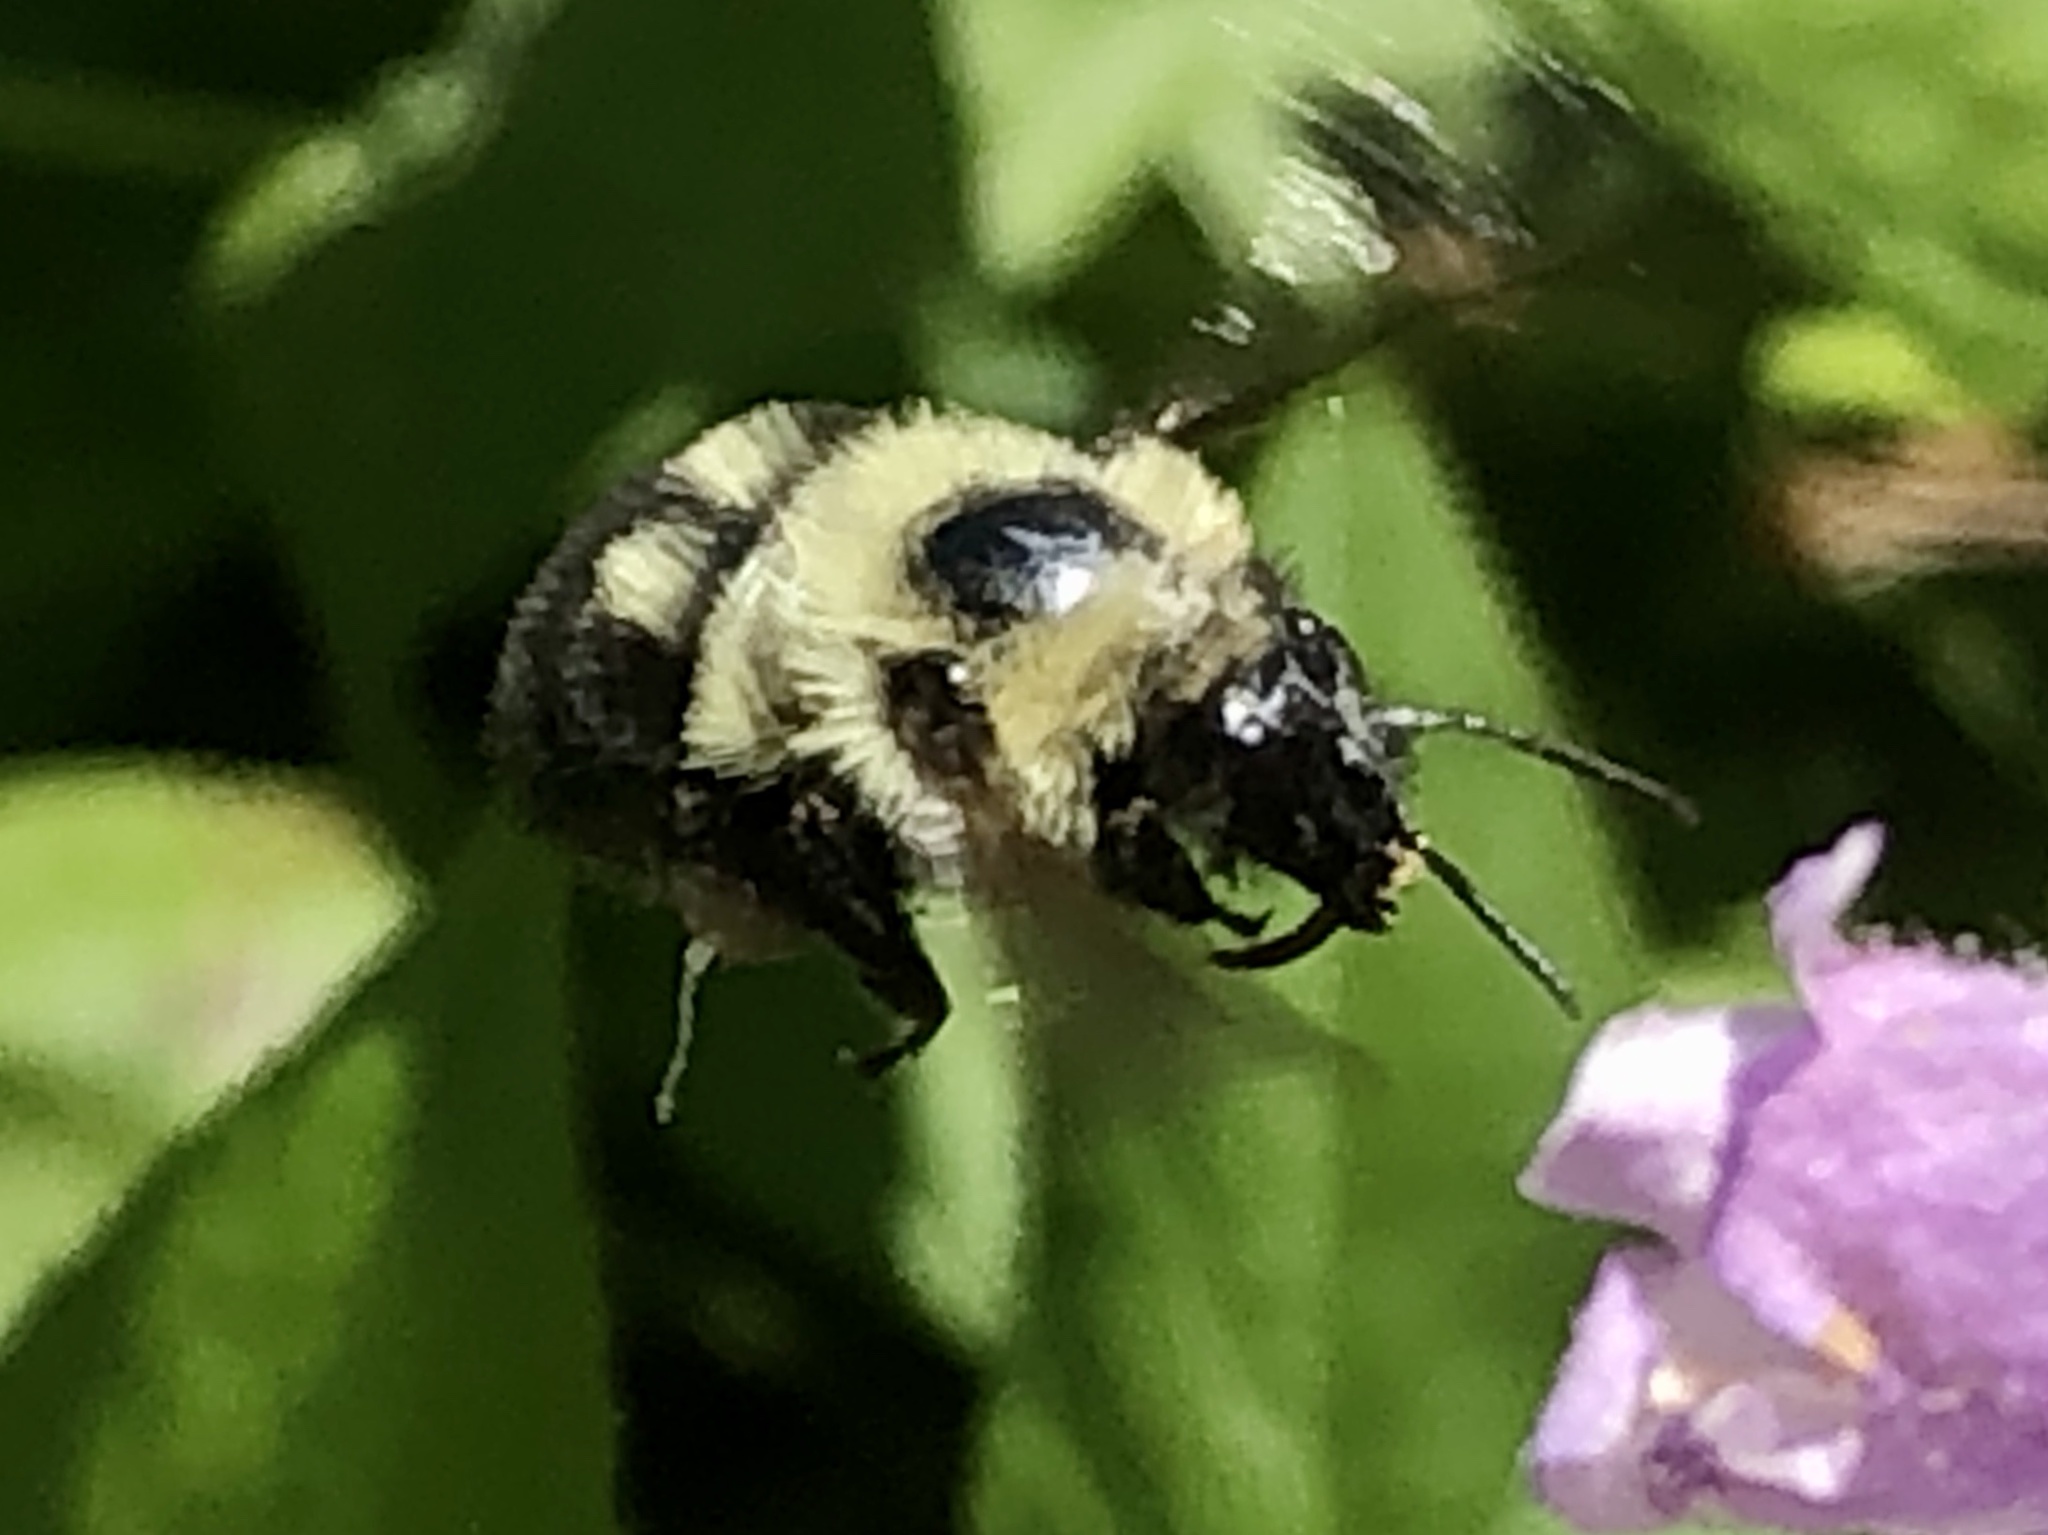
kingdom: Animalia
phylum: Arthropoda
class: Insecta
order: Hymenoptera
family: Apidae
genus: Bombus
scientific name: Bombus bimaculatus
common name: Two-spotted bumble bee
